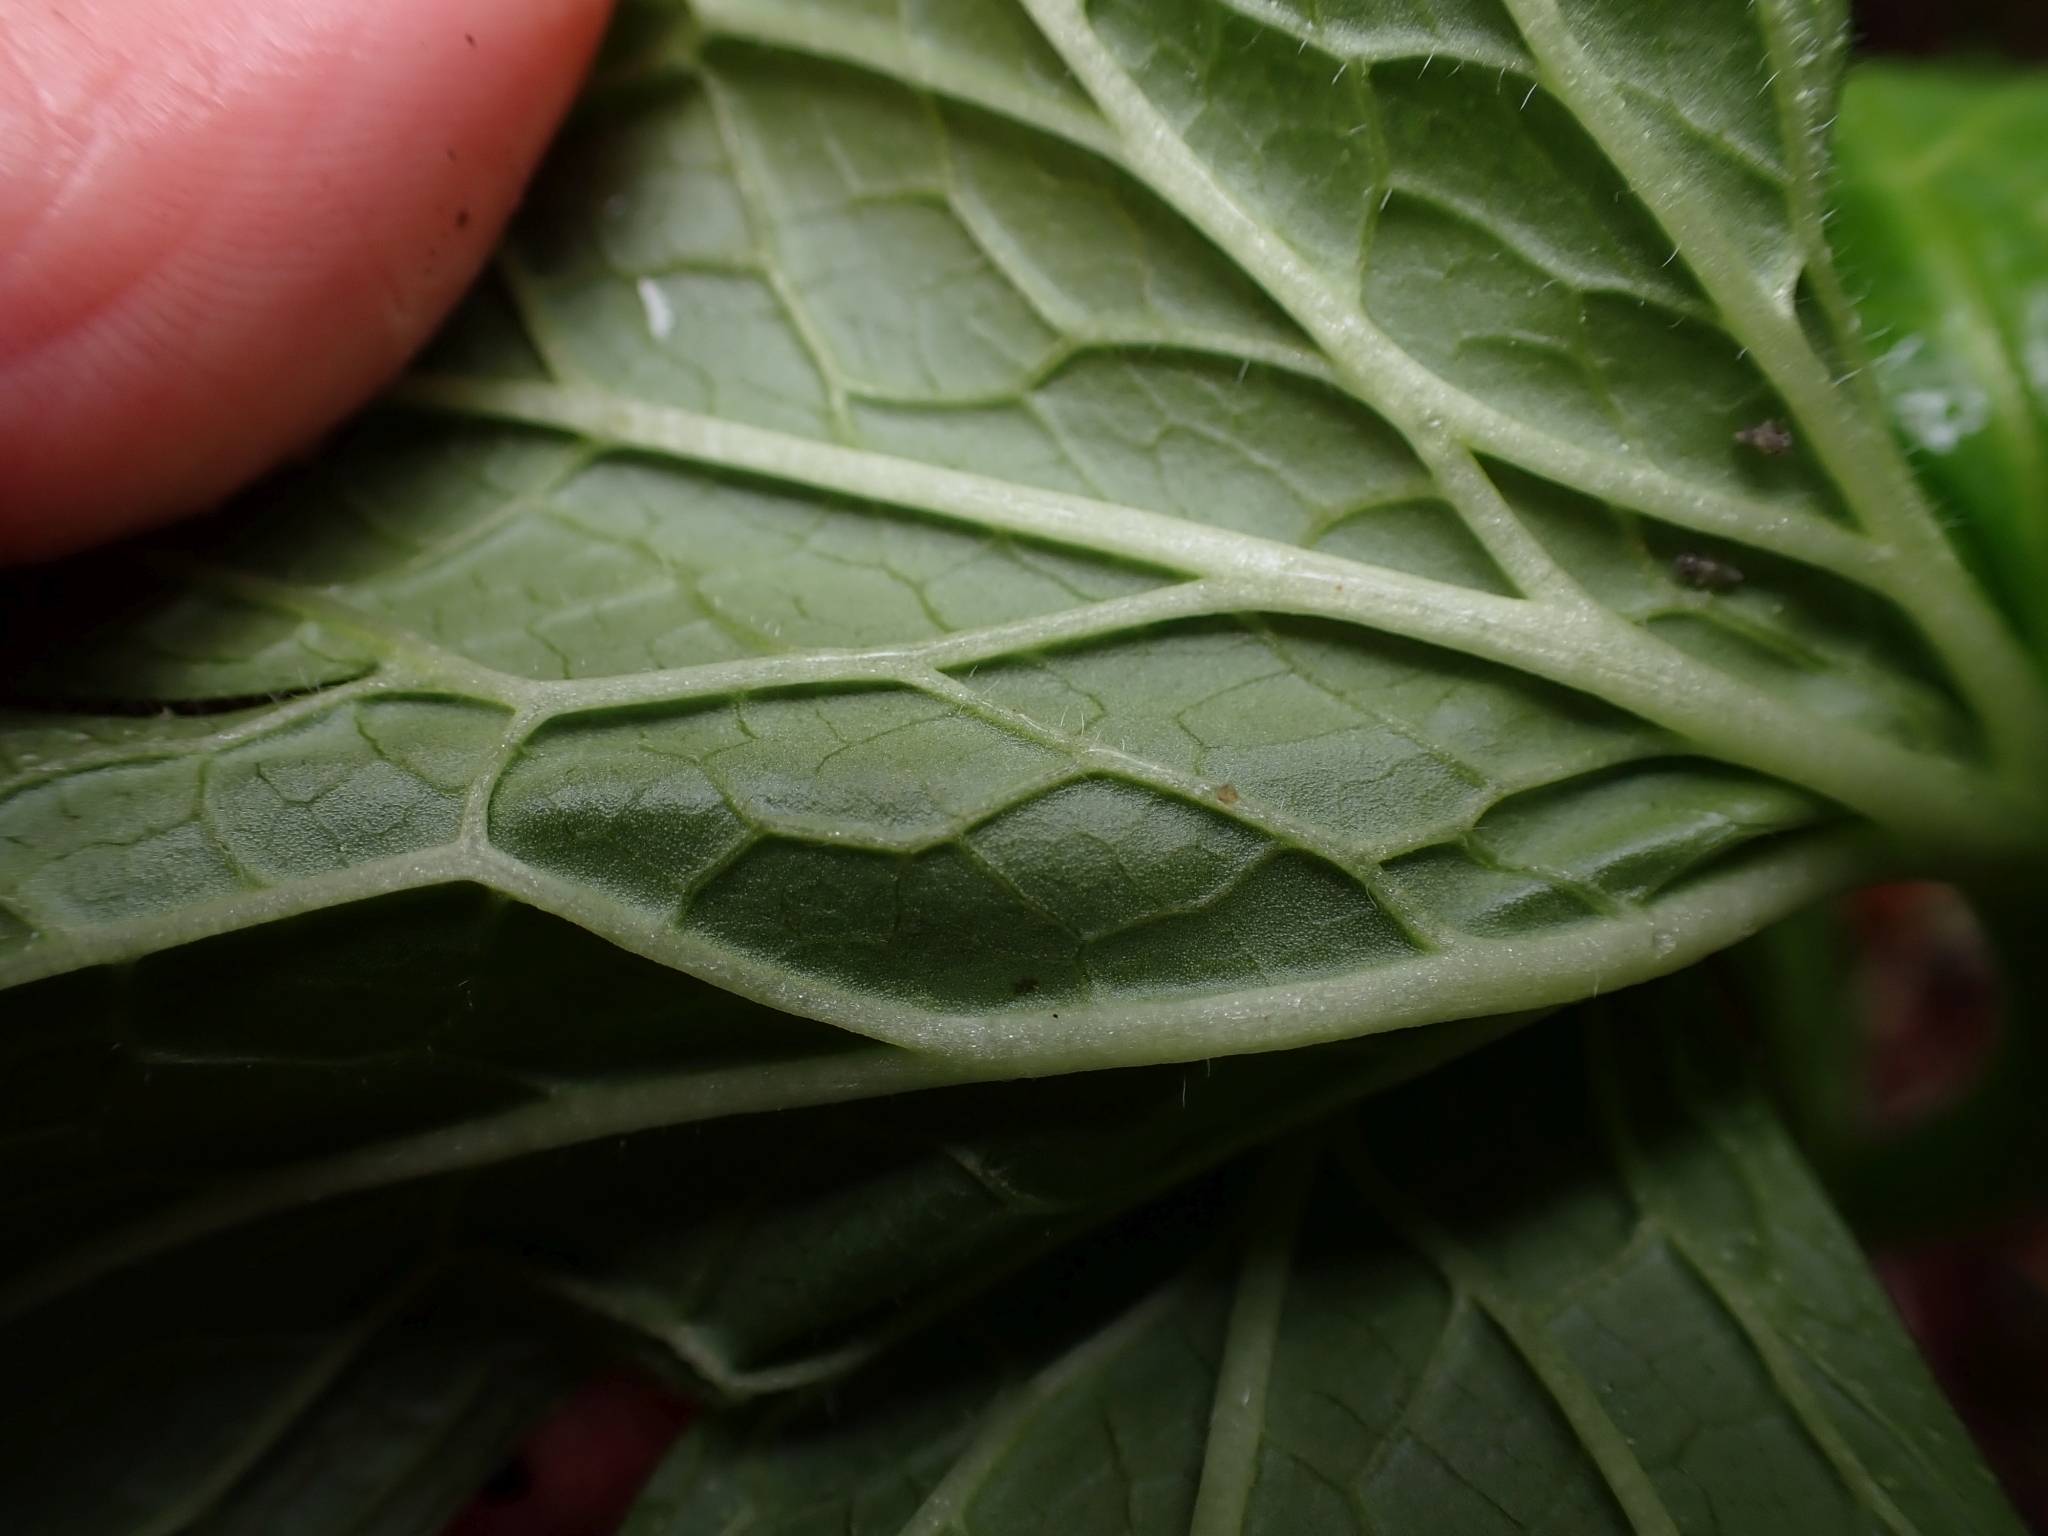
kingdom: Plantae
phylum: Tracheophyta
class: Magnoliopsida
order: Ranunculales
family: Ranunculaceae
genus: Trautvetteria
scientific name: Trautvetteria carolinensis
